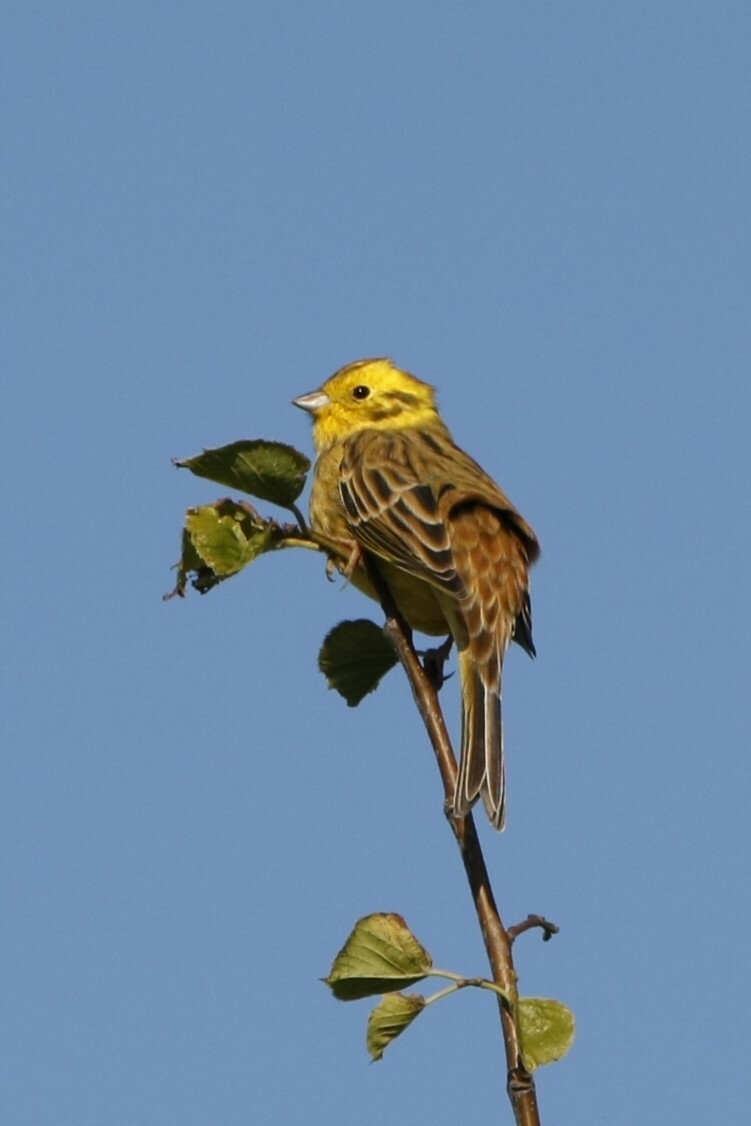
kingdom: Animalia
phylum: Chordata
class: Aves
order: Passeriformes
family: Emberizidae
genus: Emberiza
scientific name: Emberiza citrinella
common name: Yellowhammer
